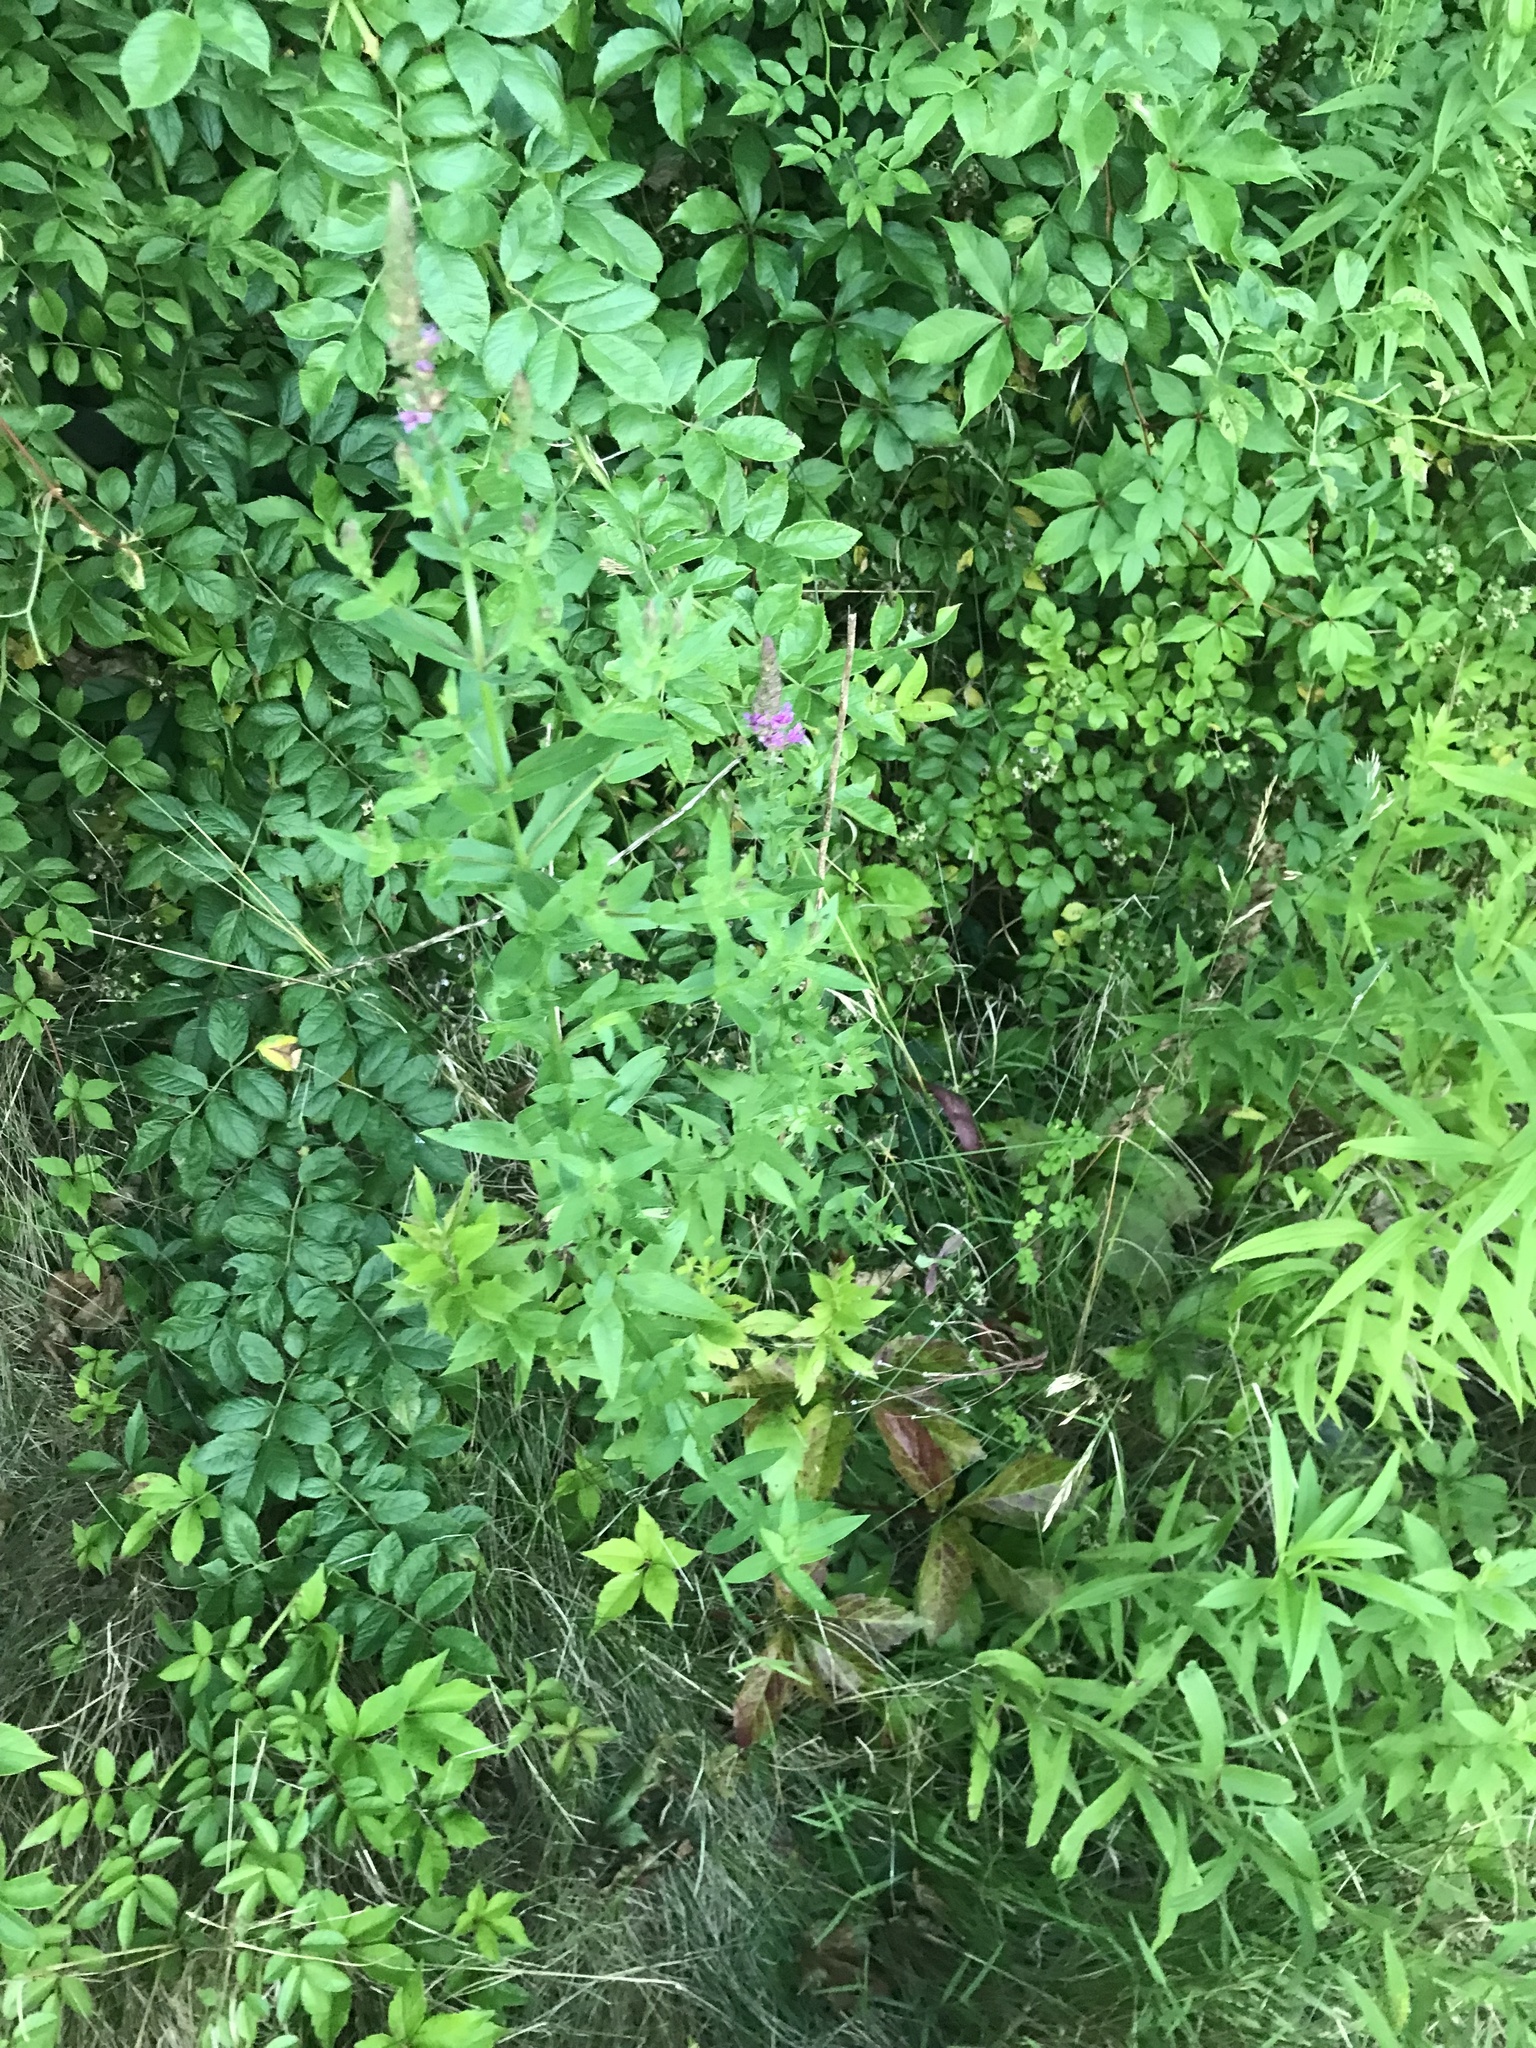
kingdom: Plantae
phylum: Tracheophyta
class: Magnoliopsida
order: Myrtales
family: Lythraceae
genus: Lythrum
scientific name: Lythrum salicaria
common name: Purple loosestrife
